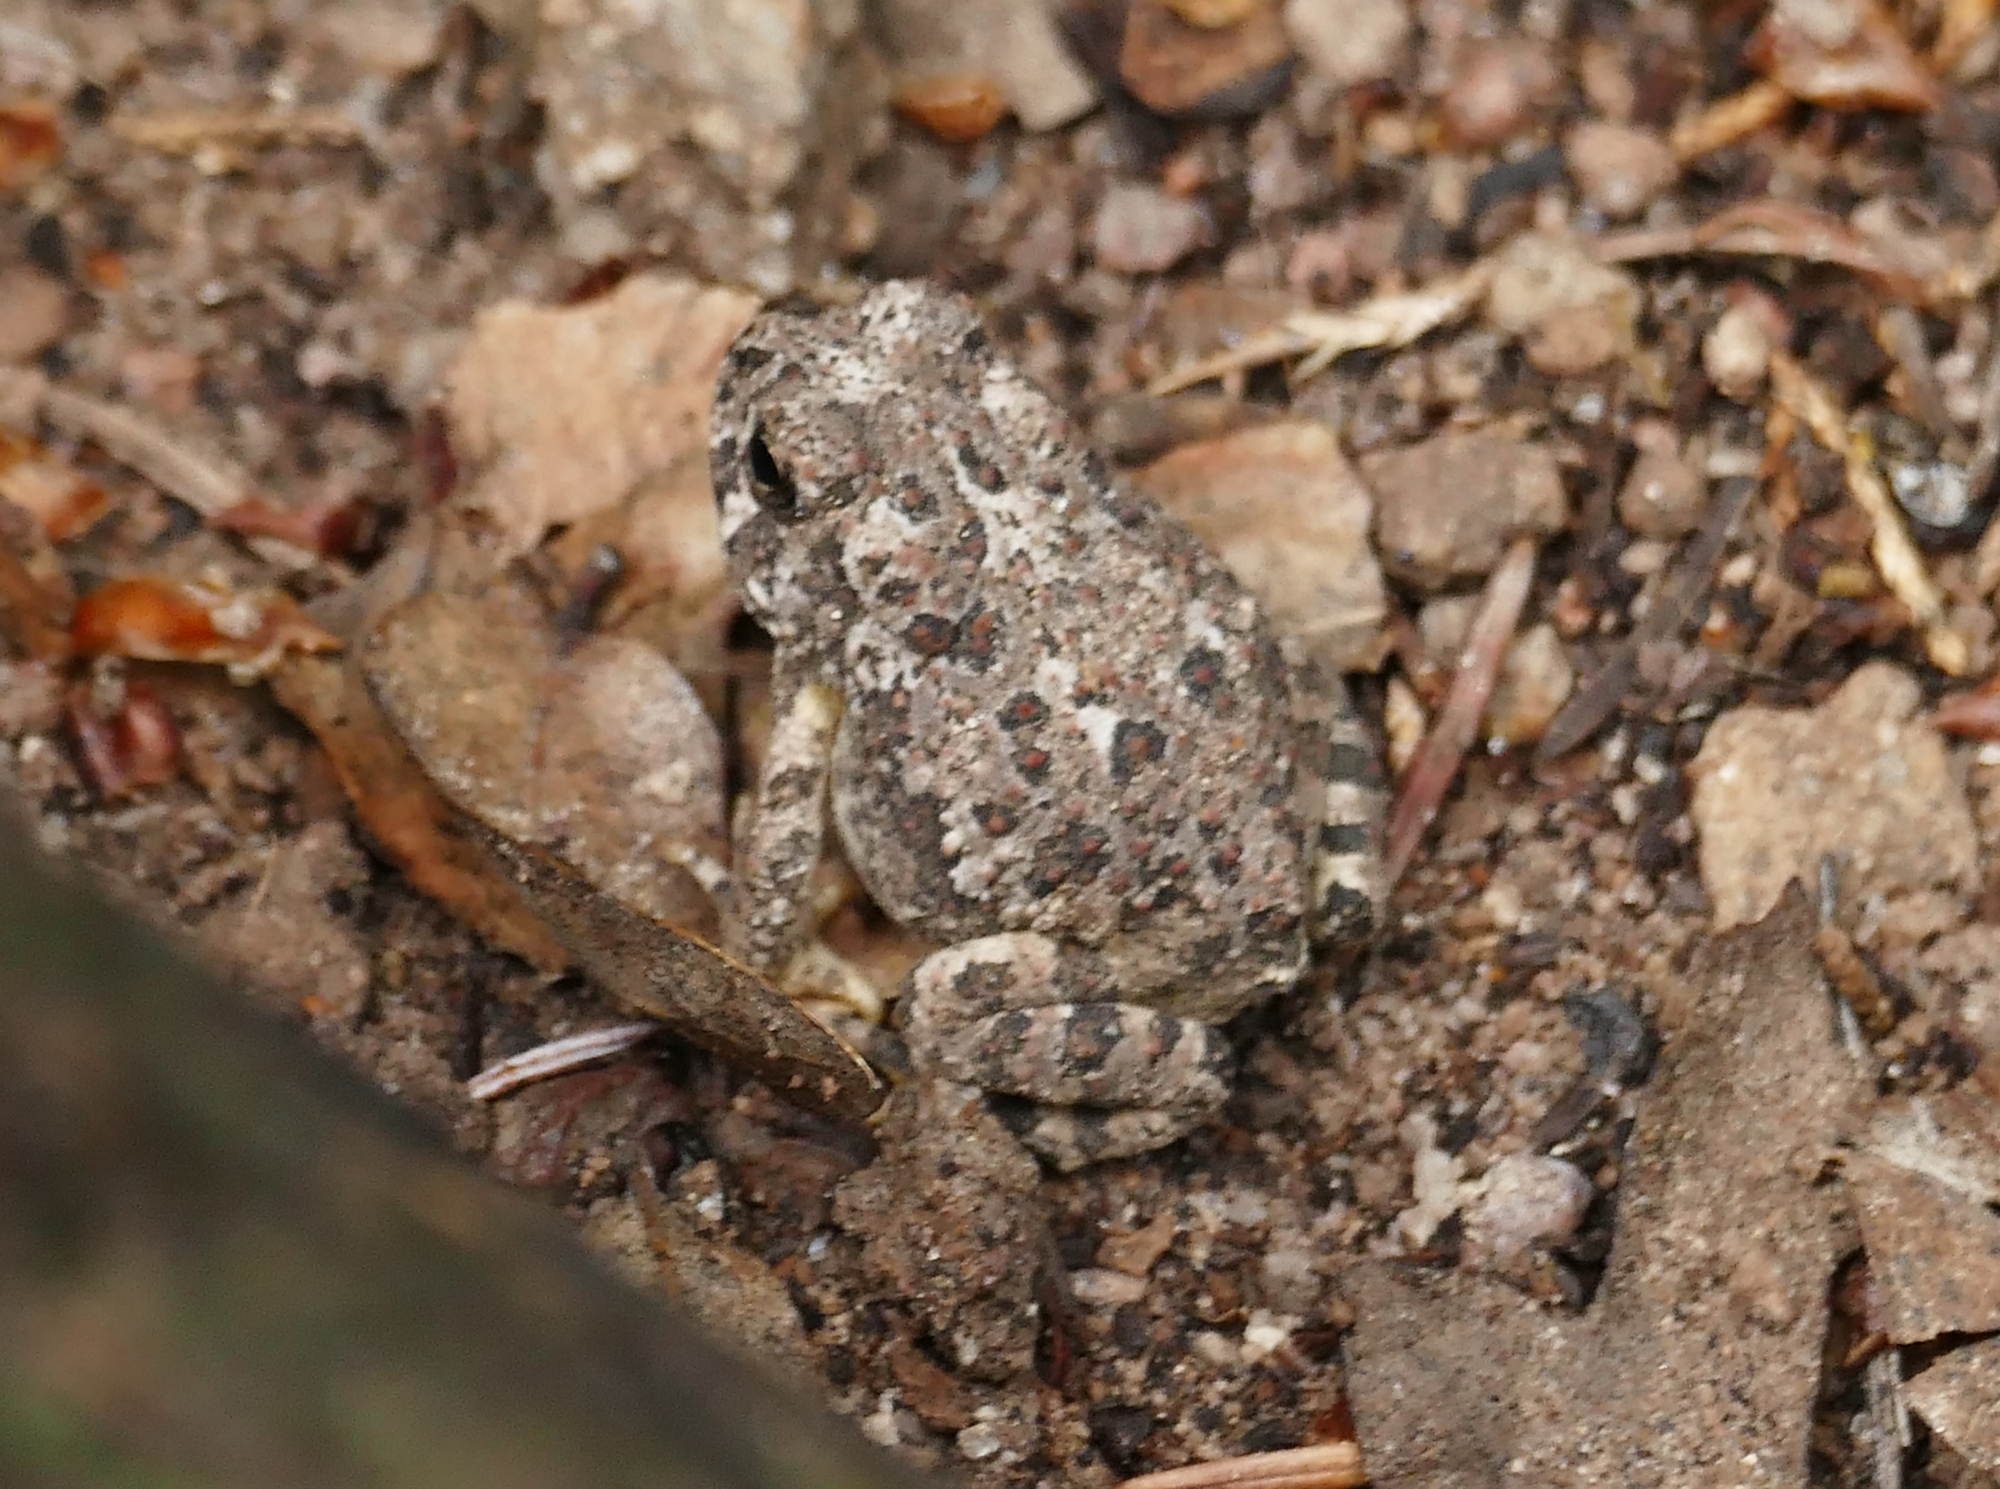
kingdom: Animalia
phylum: Chordata
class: Amphibia
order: Anura
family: Bufonidae
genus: Anaxyrus
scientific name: Anaxyrus microscaphus
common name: Arizona toad
